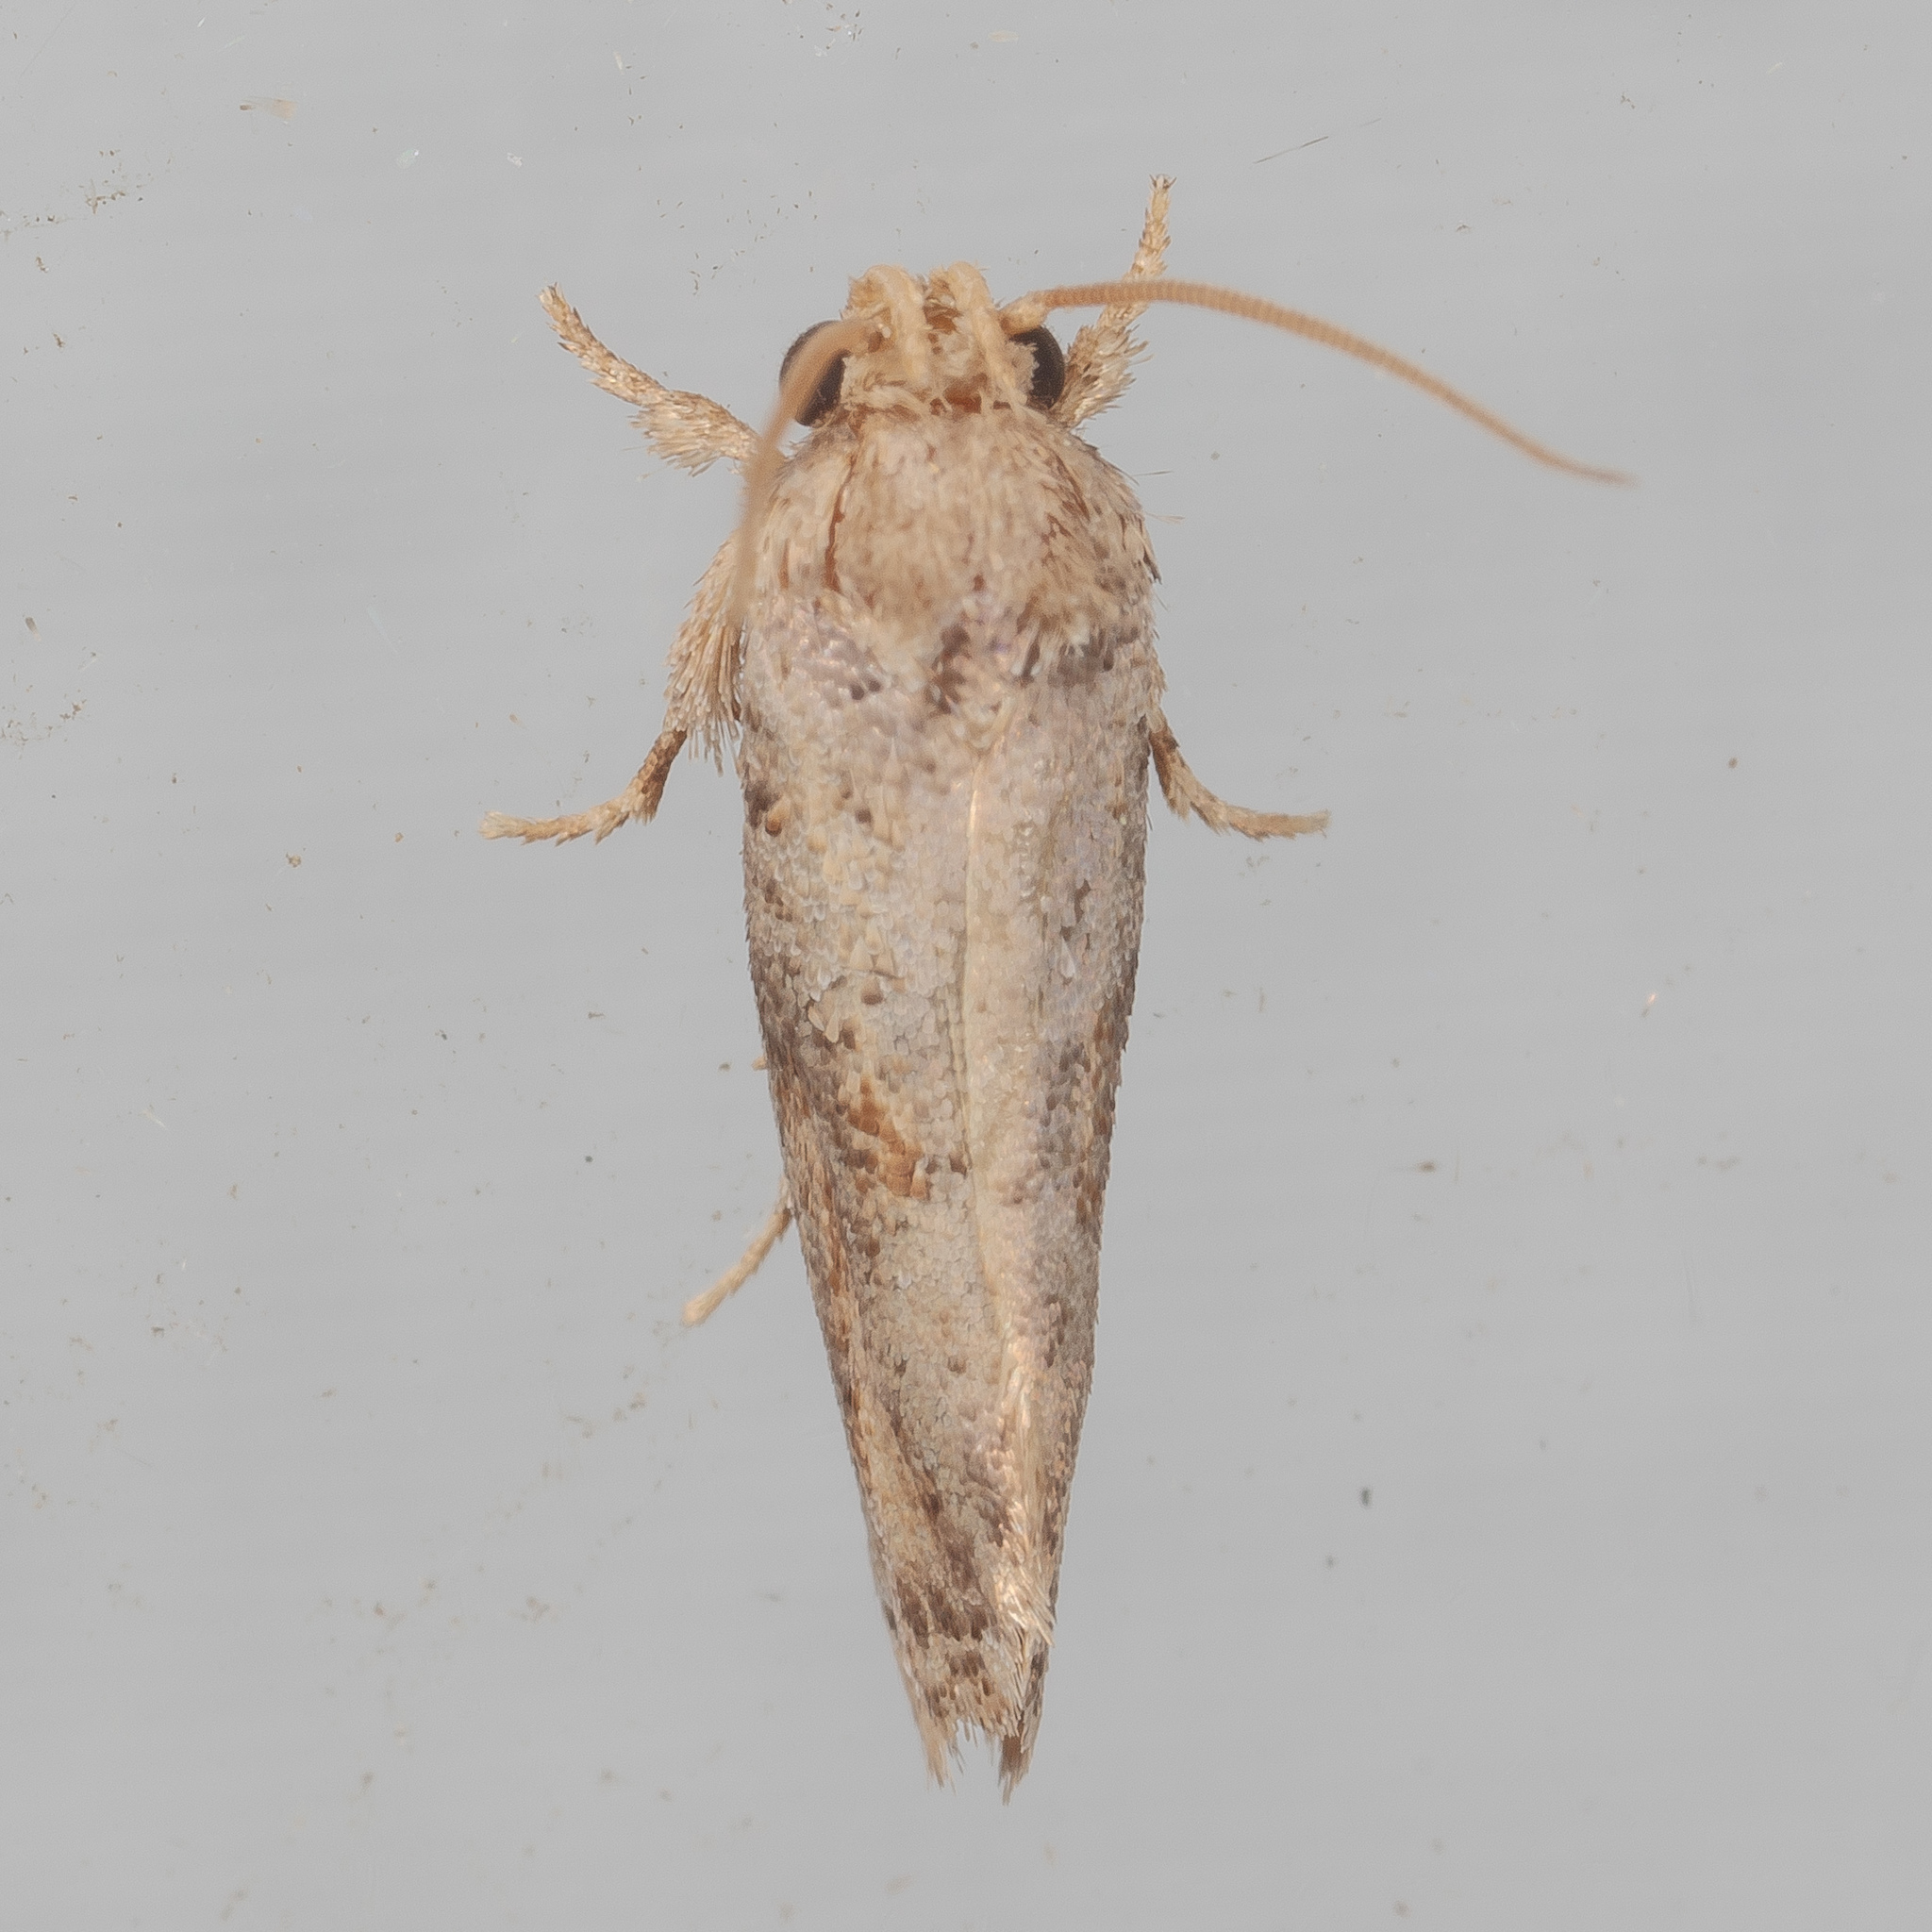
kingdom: Animalia
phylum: Arthropoda
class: Insecta
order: Lepidoptera
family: Tineidae
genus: Acrolophus
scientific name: Acrolophus piger
